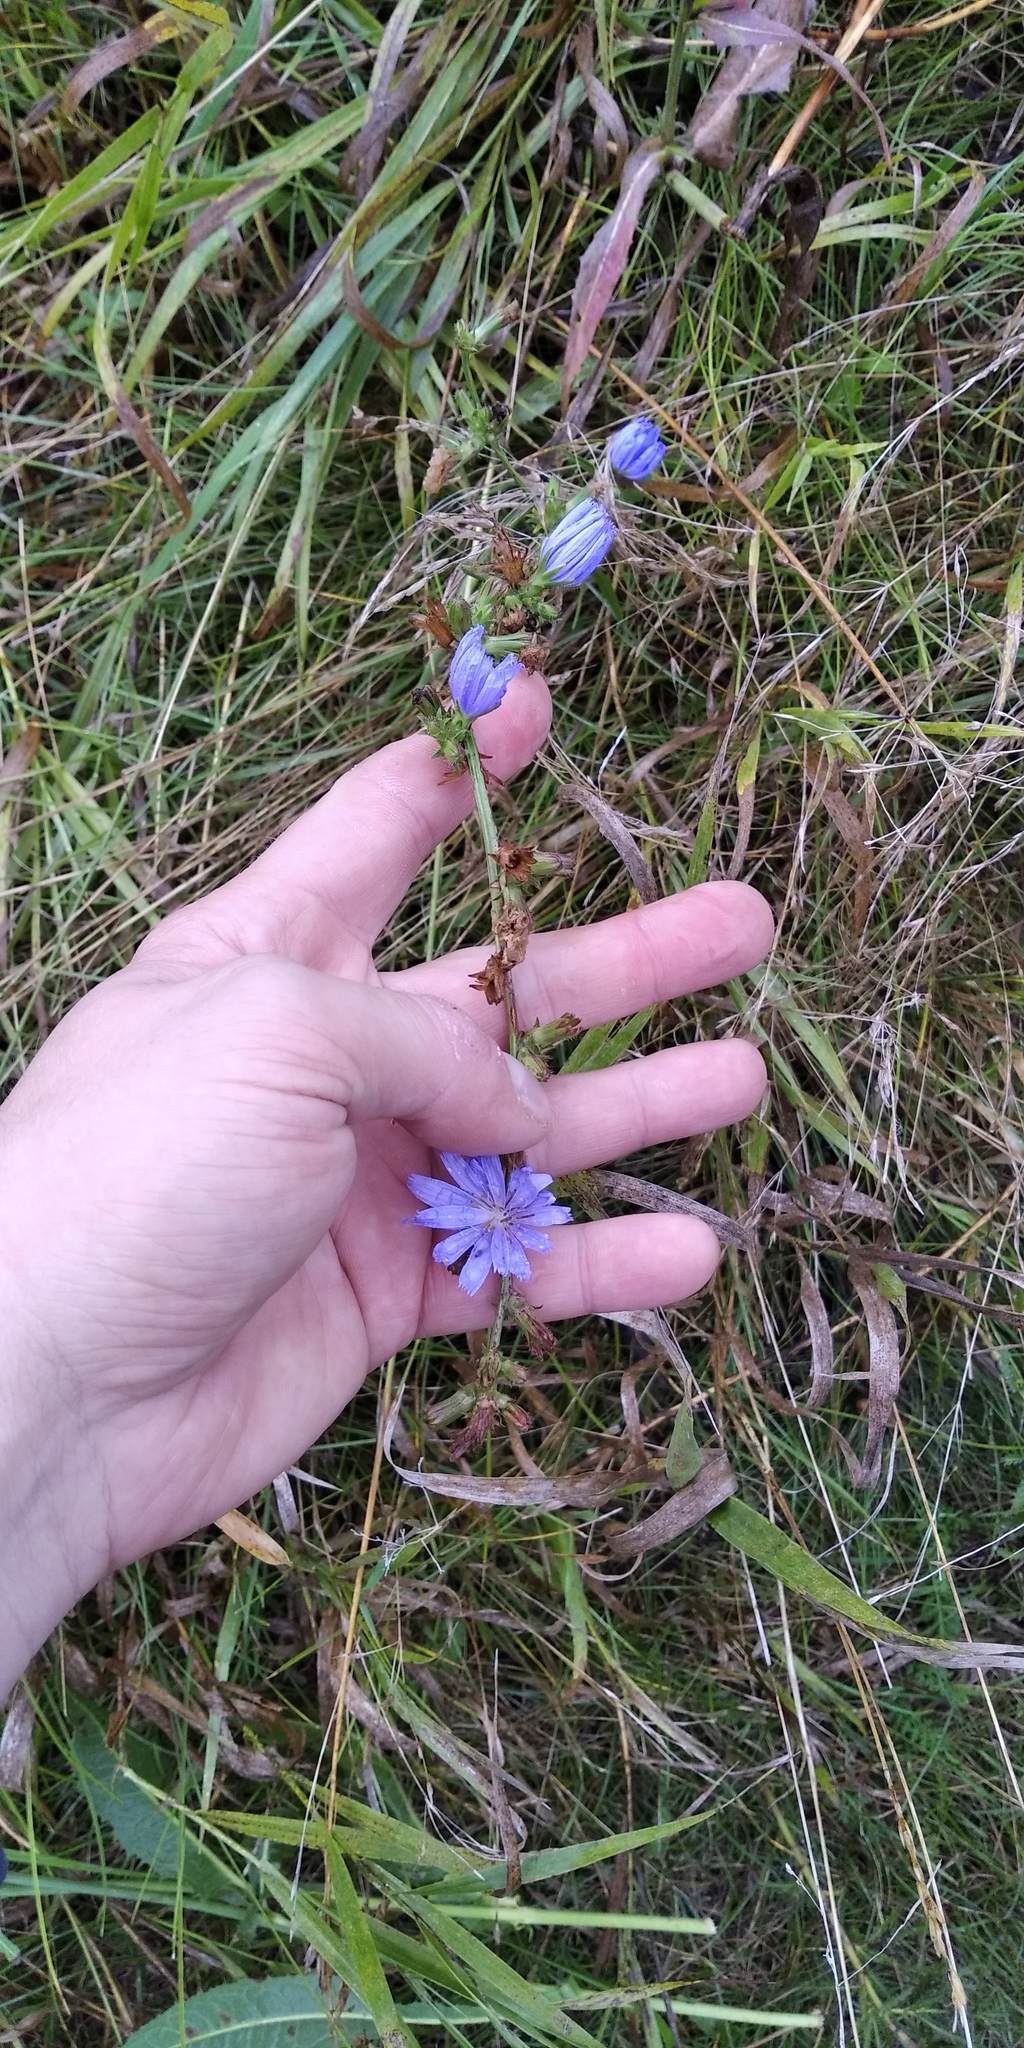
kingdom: Plantae
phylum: Tracheophyta
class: Magnoliopsida
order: Asterales
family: Asteraceae
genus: Cichorium
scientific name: Cichorium intybus
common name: Chicory
